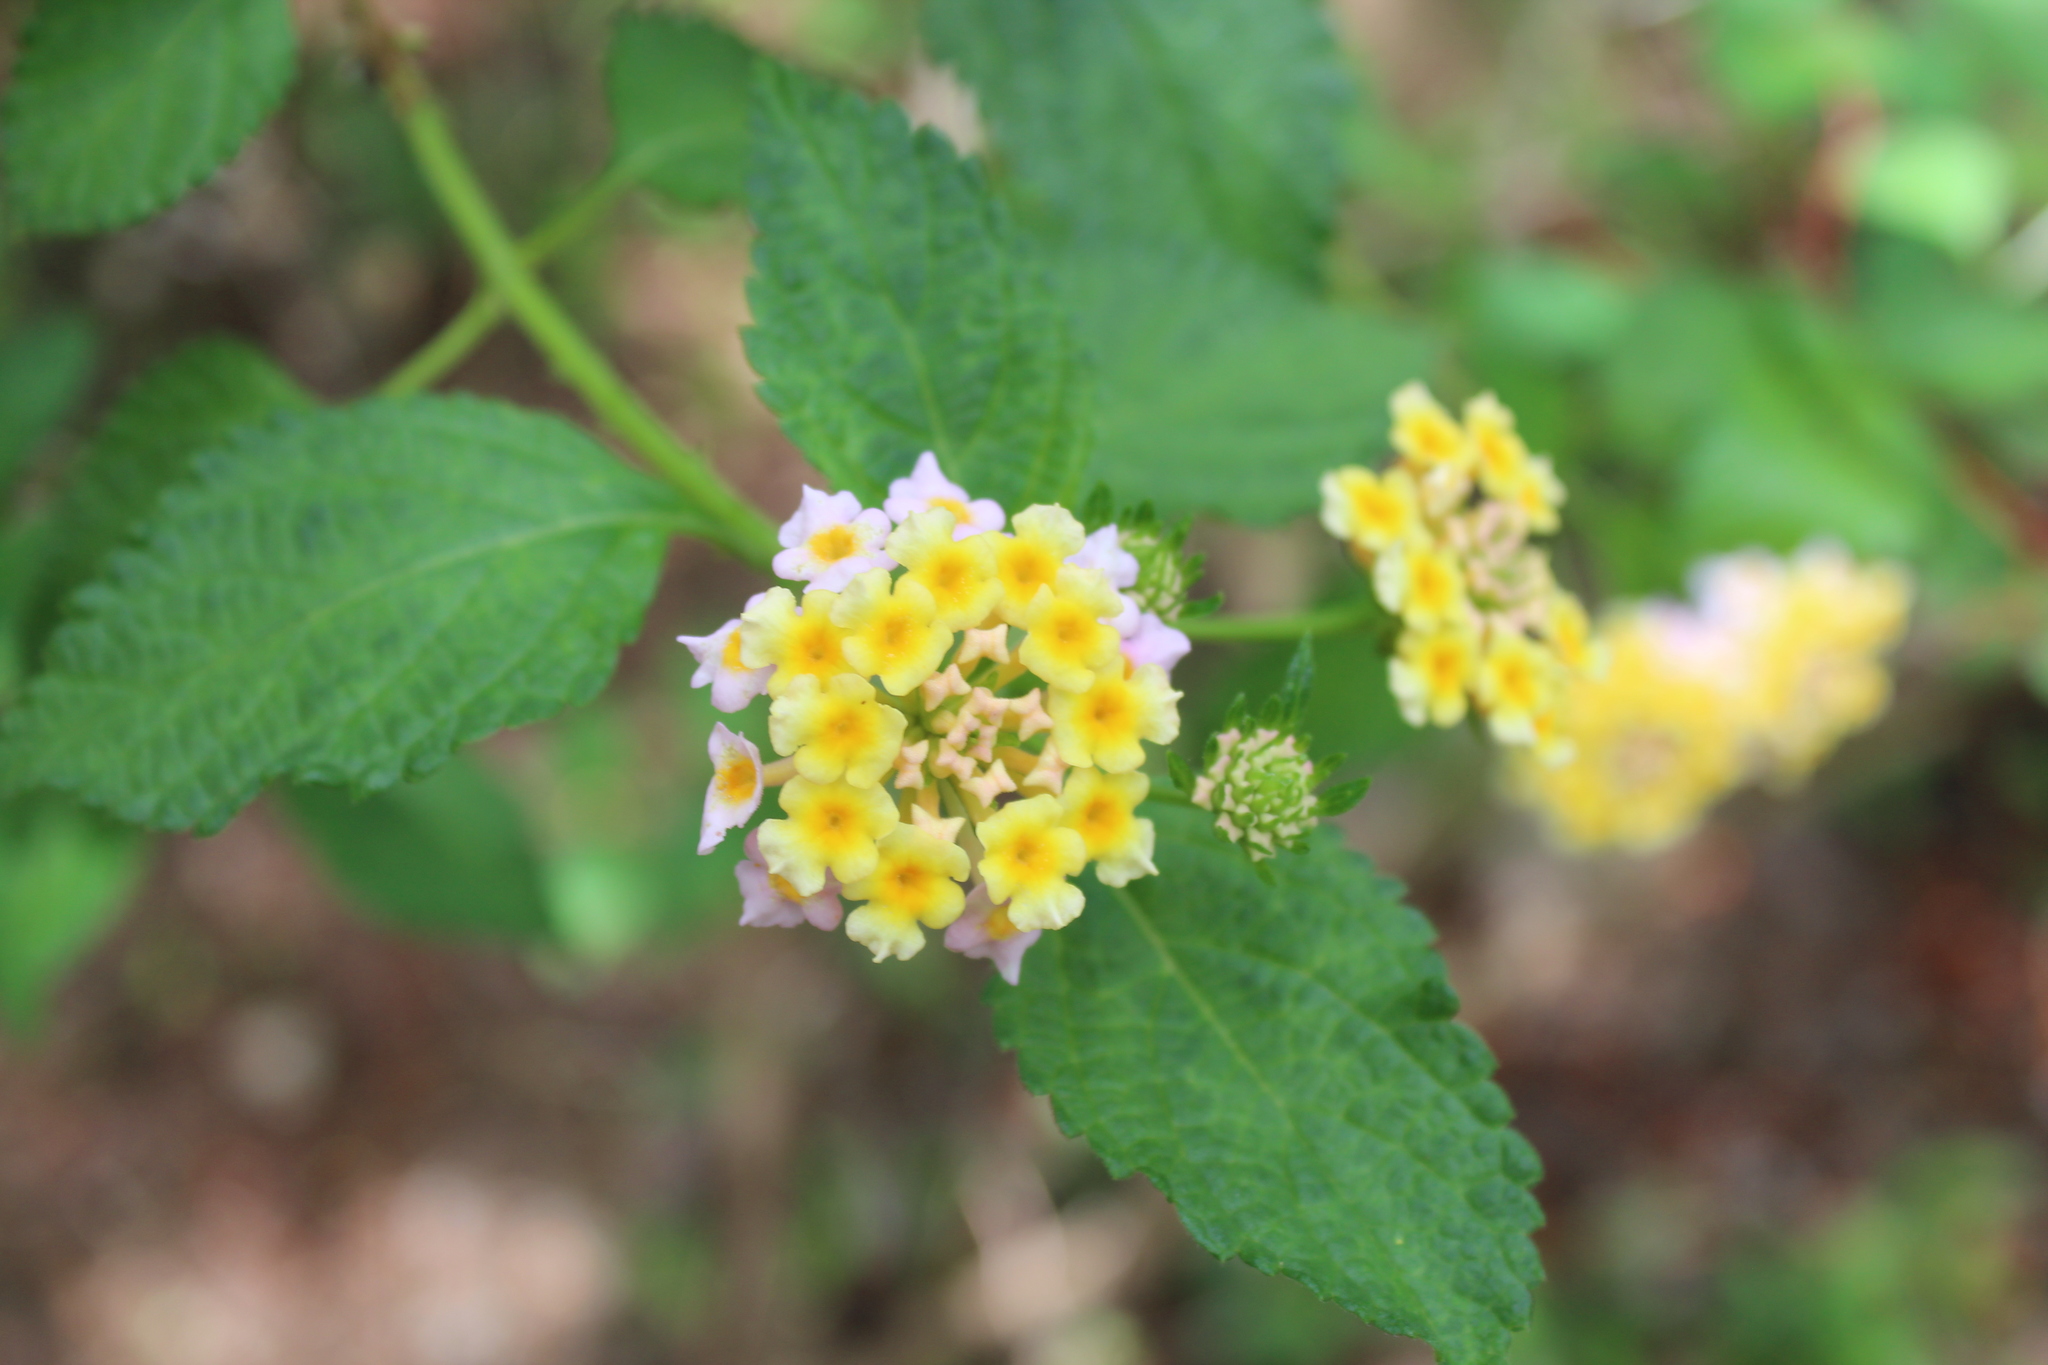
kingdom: Plantae
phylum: Tracheophyta
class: Magnoliopsida
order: Lamiales
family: Verbenaceae
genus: Lantana
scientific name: Lantana camara
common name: Lantana
